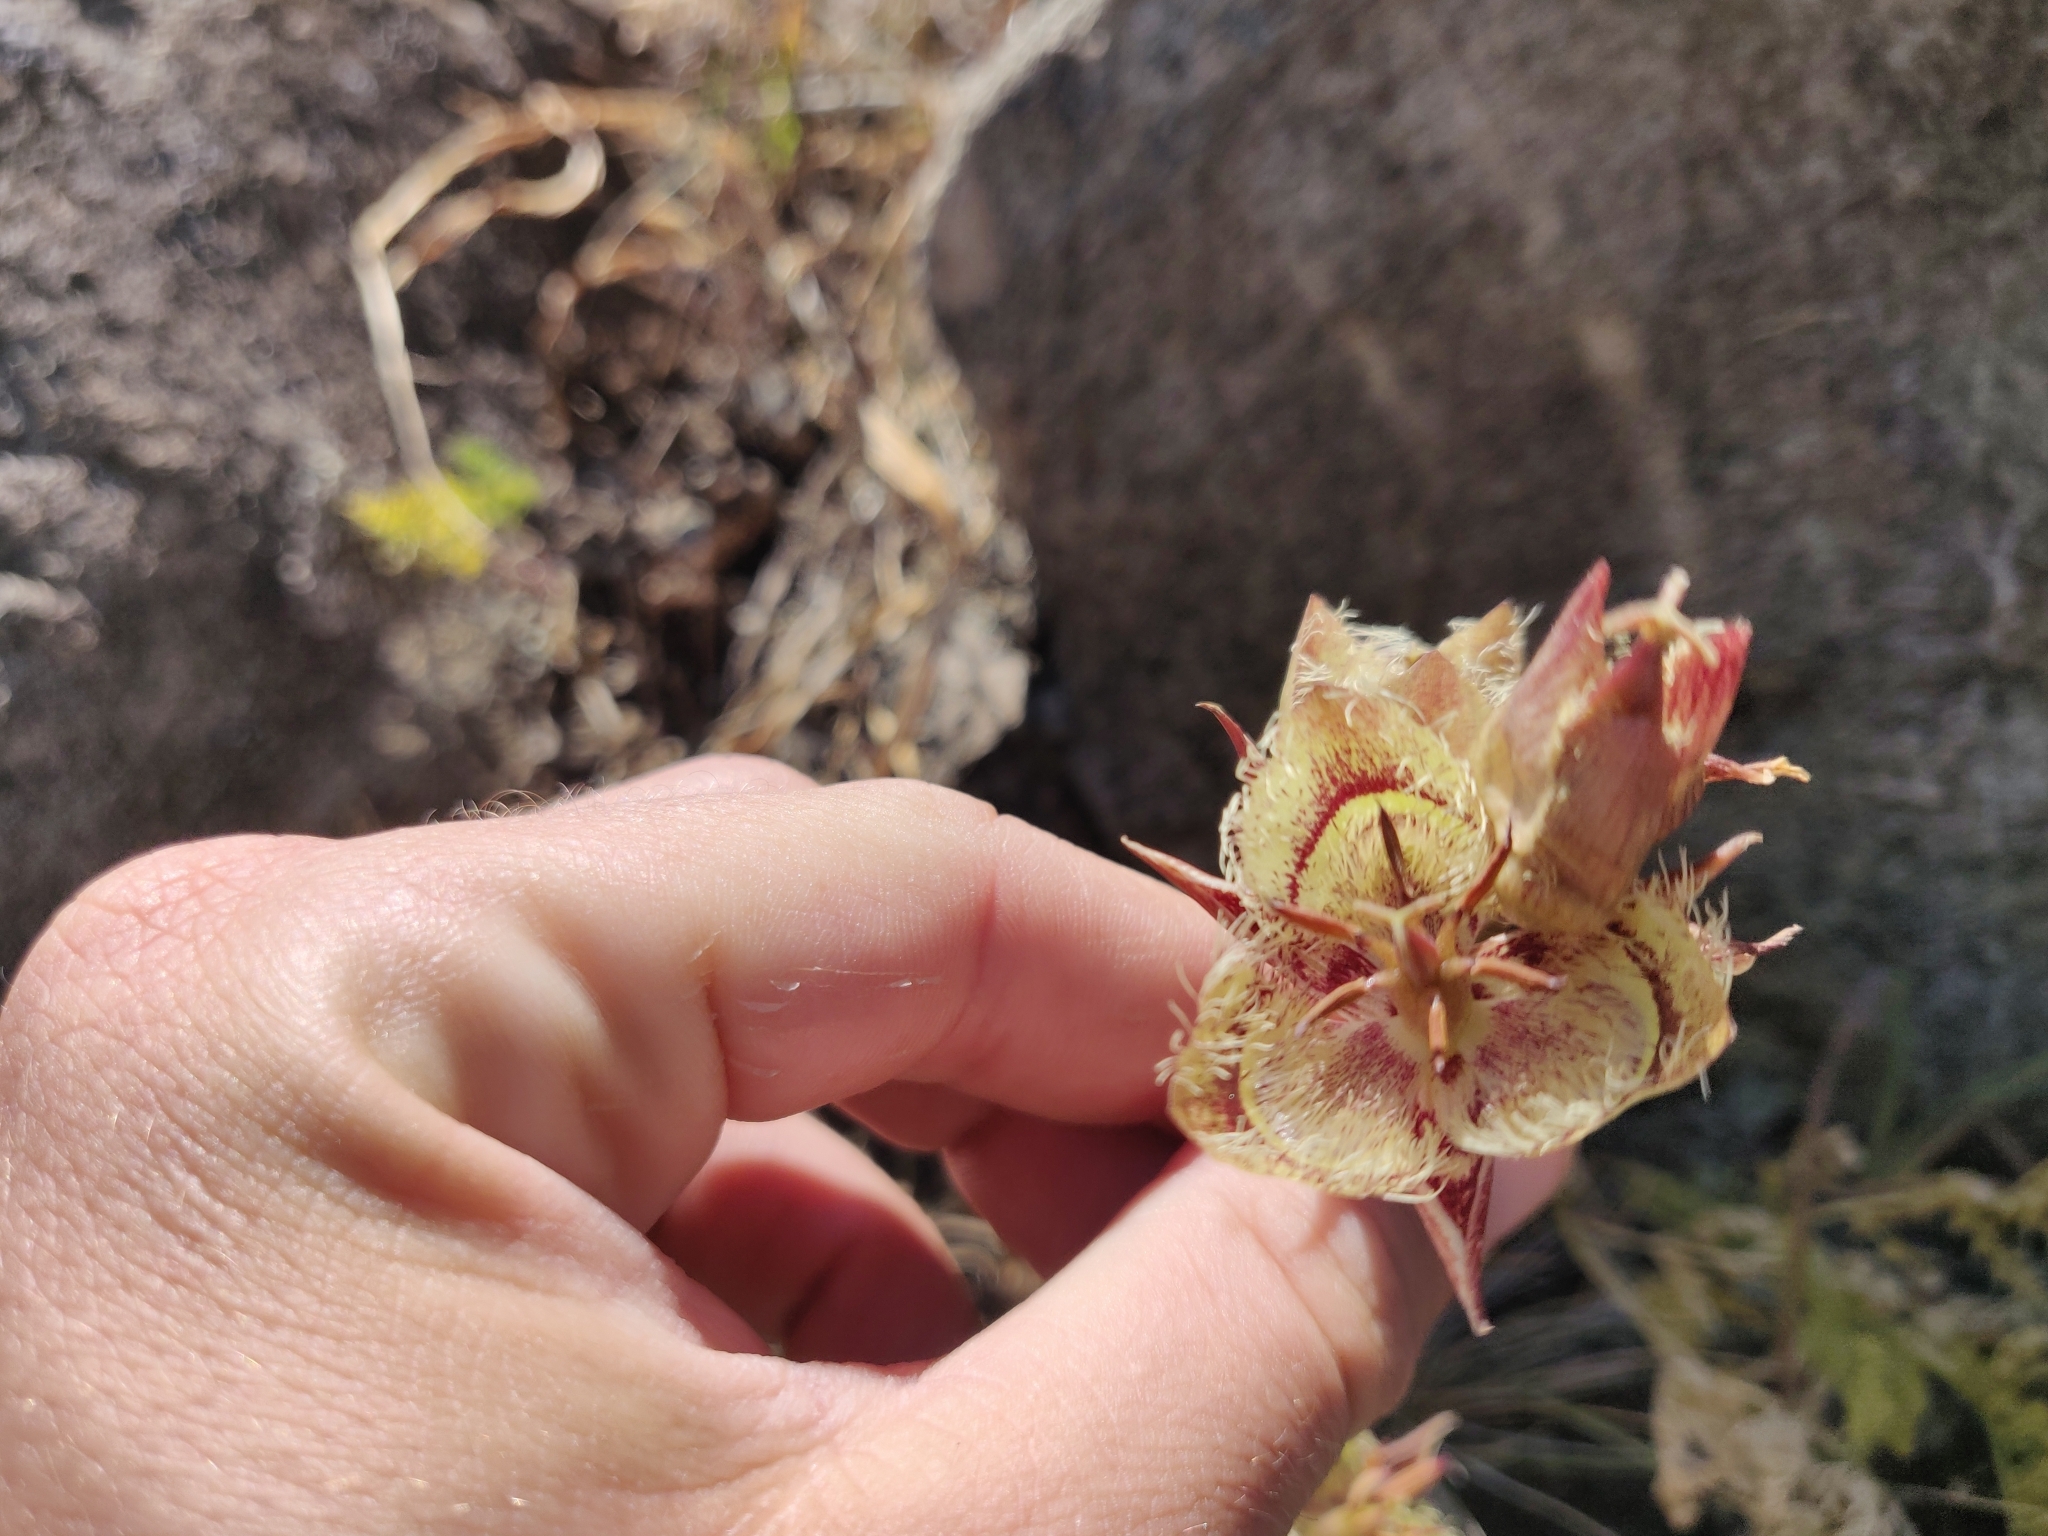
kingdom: Plantae
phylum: Tracheophyta
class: Liliopsida
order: Liliales
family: Liliaceae
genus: Calochortus
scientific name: Calochortus tiburonensis
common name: Tiburon mariposa-lily
